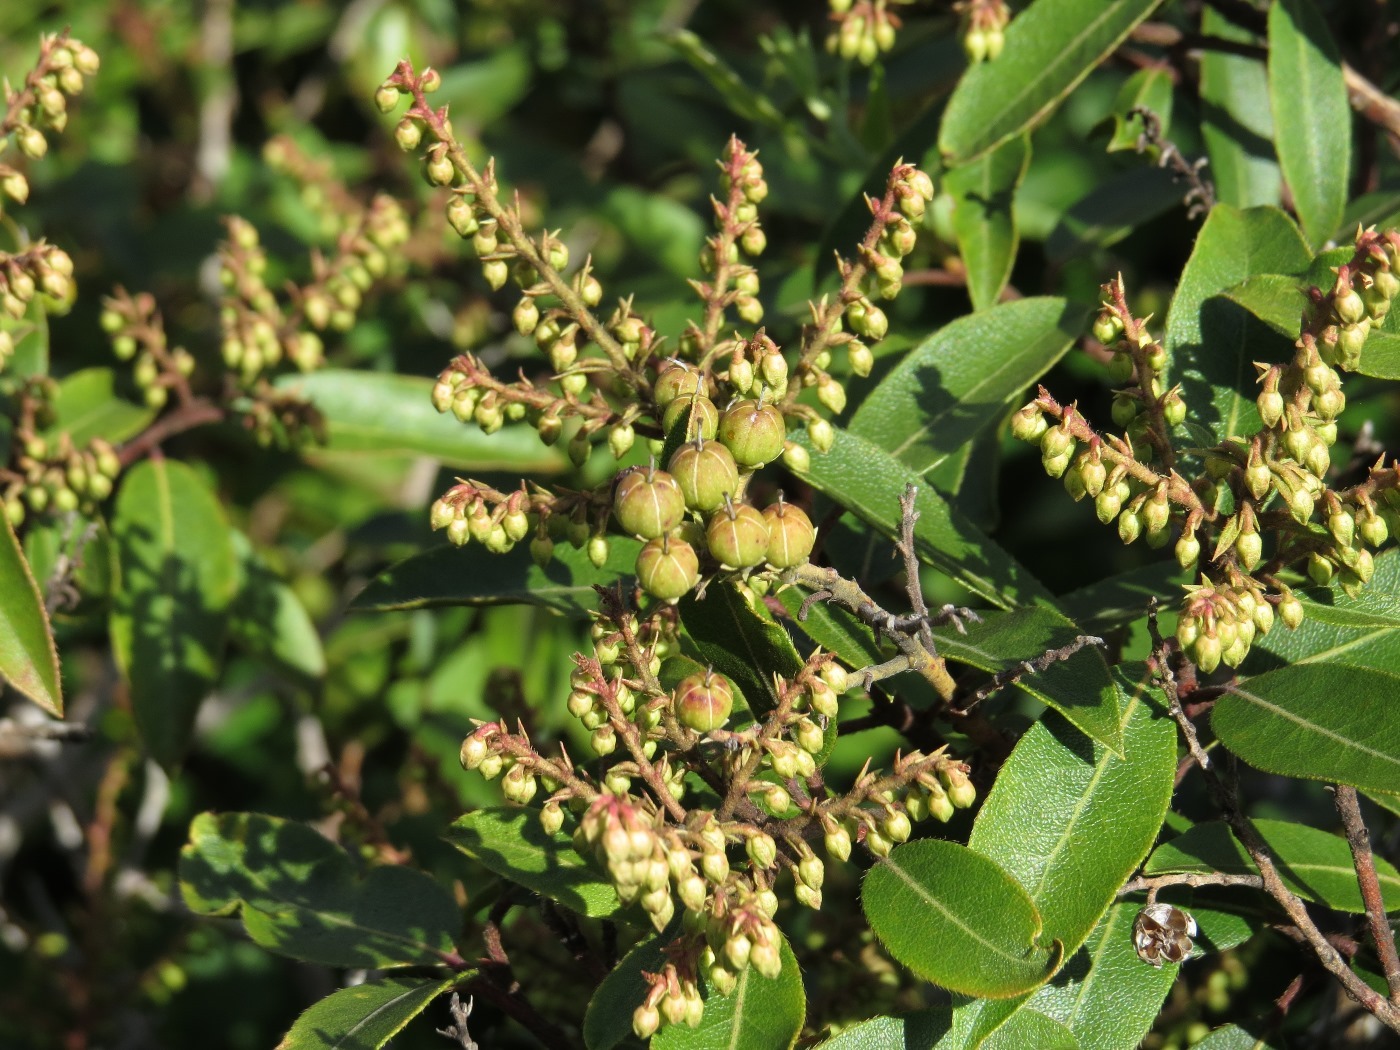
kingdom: Plantae
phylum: Tracheophyta
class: Magnoliopsida
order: Ericales
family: Ericaceae
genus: Pieris
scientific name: Pieris floribunda
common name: Flutterbush
